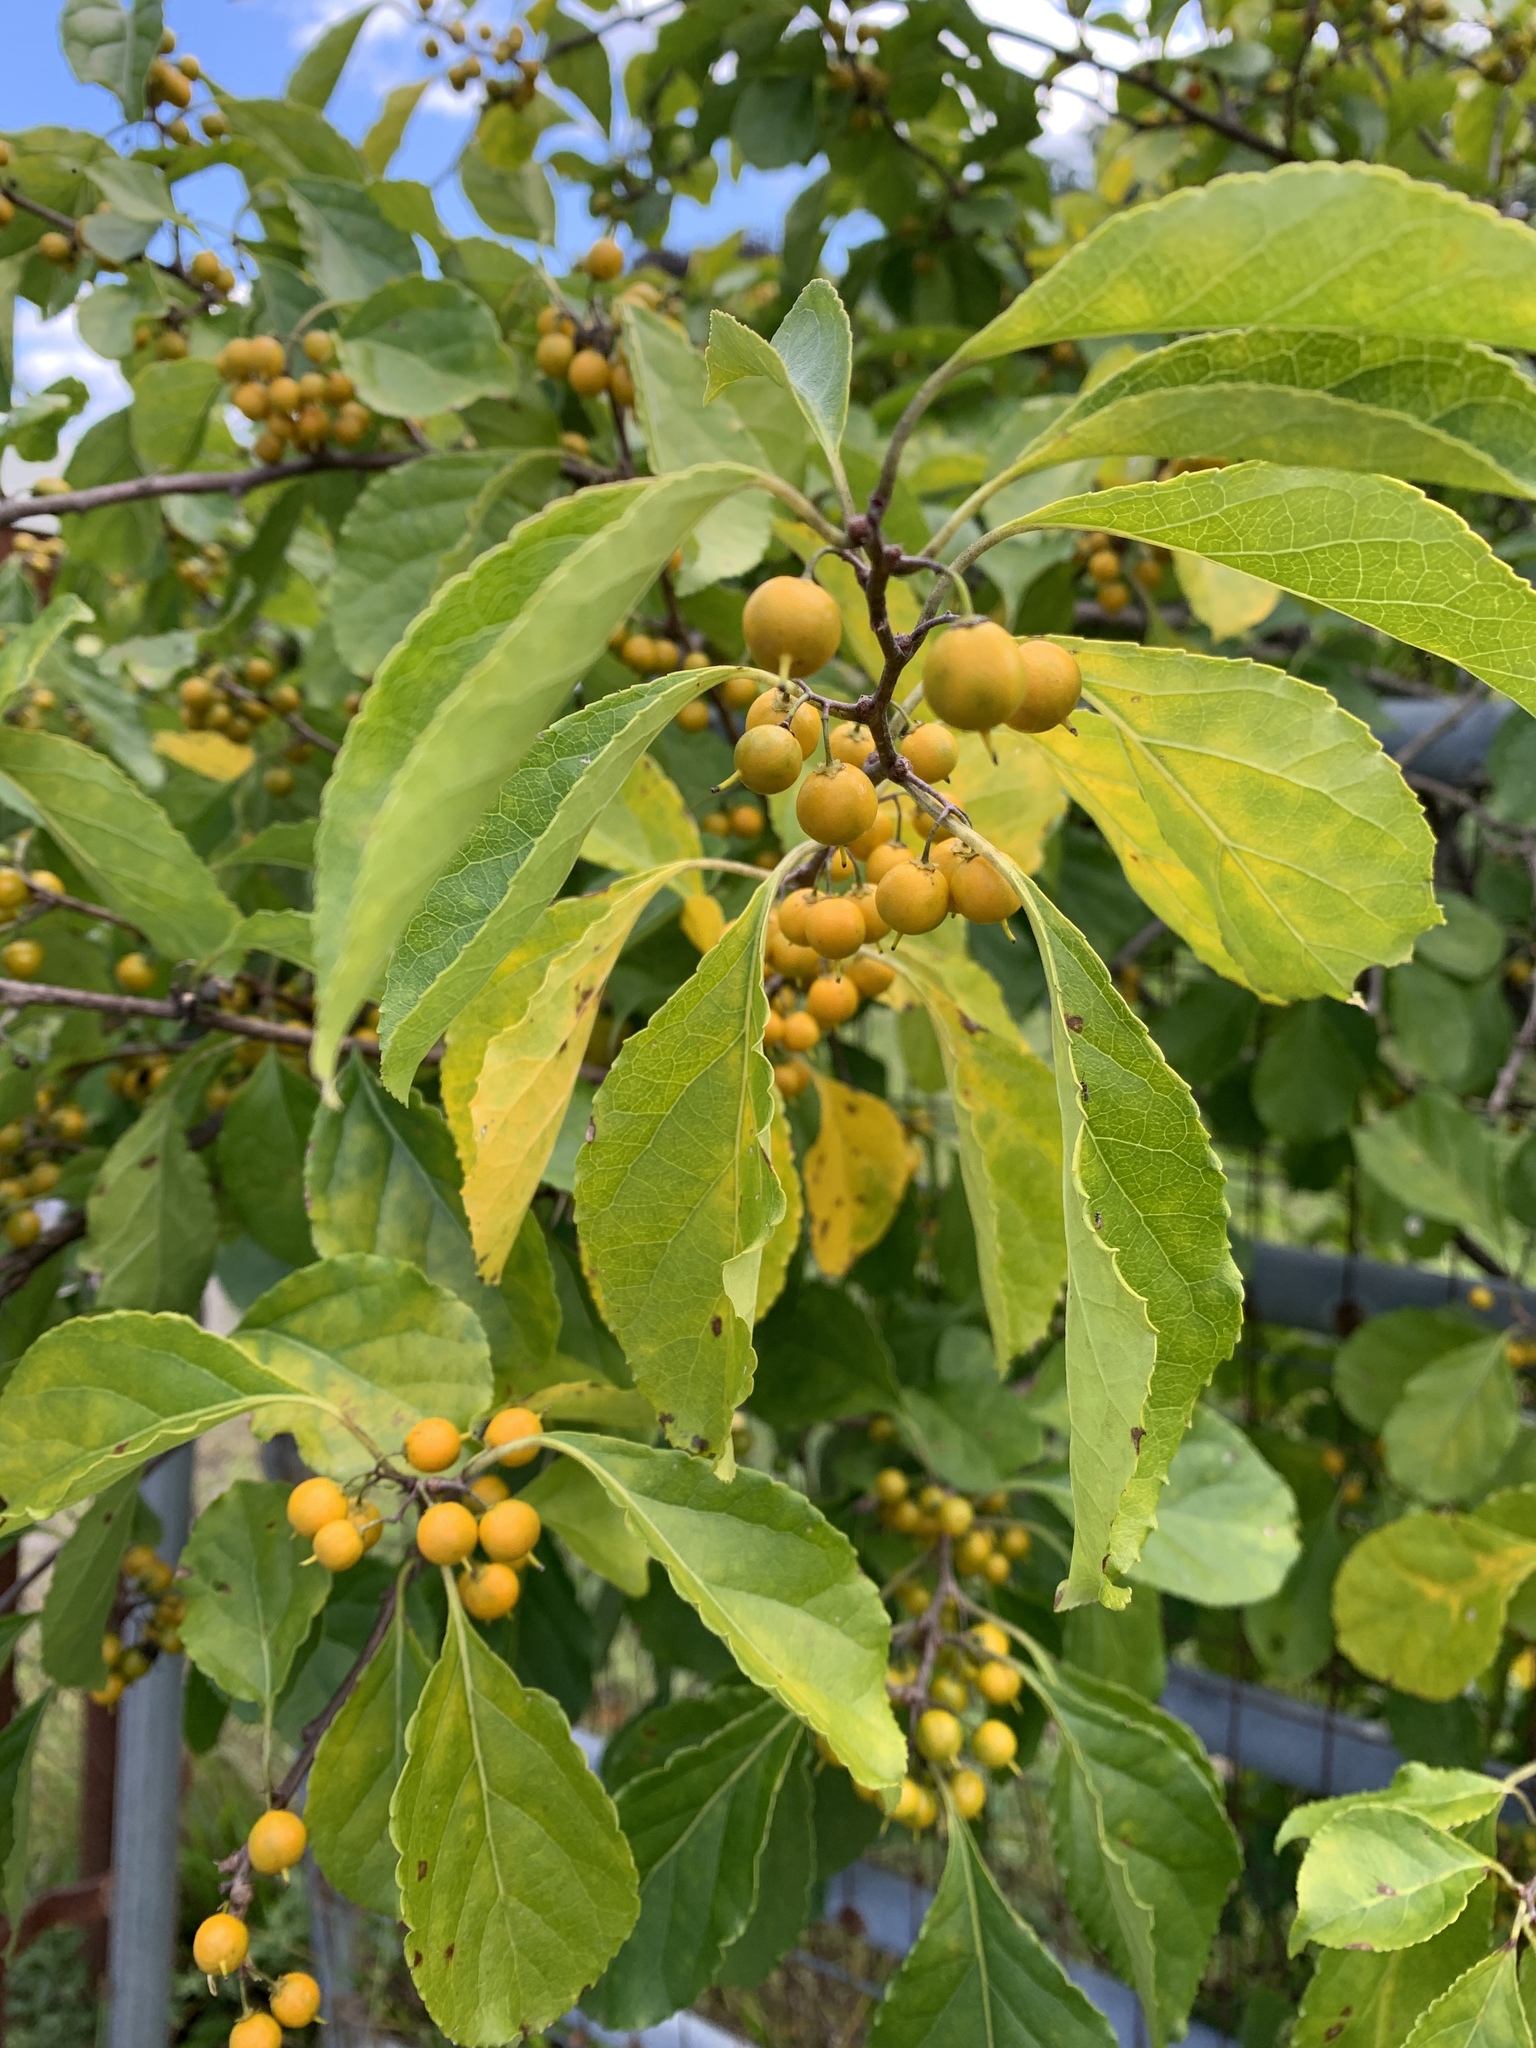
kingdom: Plantae
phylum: Tracheophyta
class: Magnoliopsida
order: Celastrales
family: Celastraceae
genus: Celastrus
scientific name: Celastrus orbiculatus
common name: Oriental bittersweet
